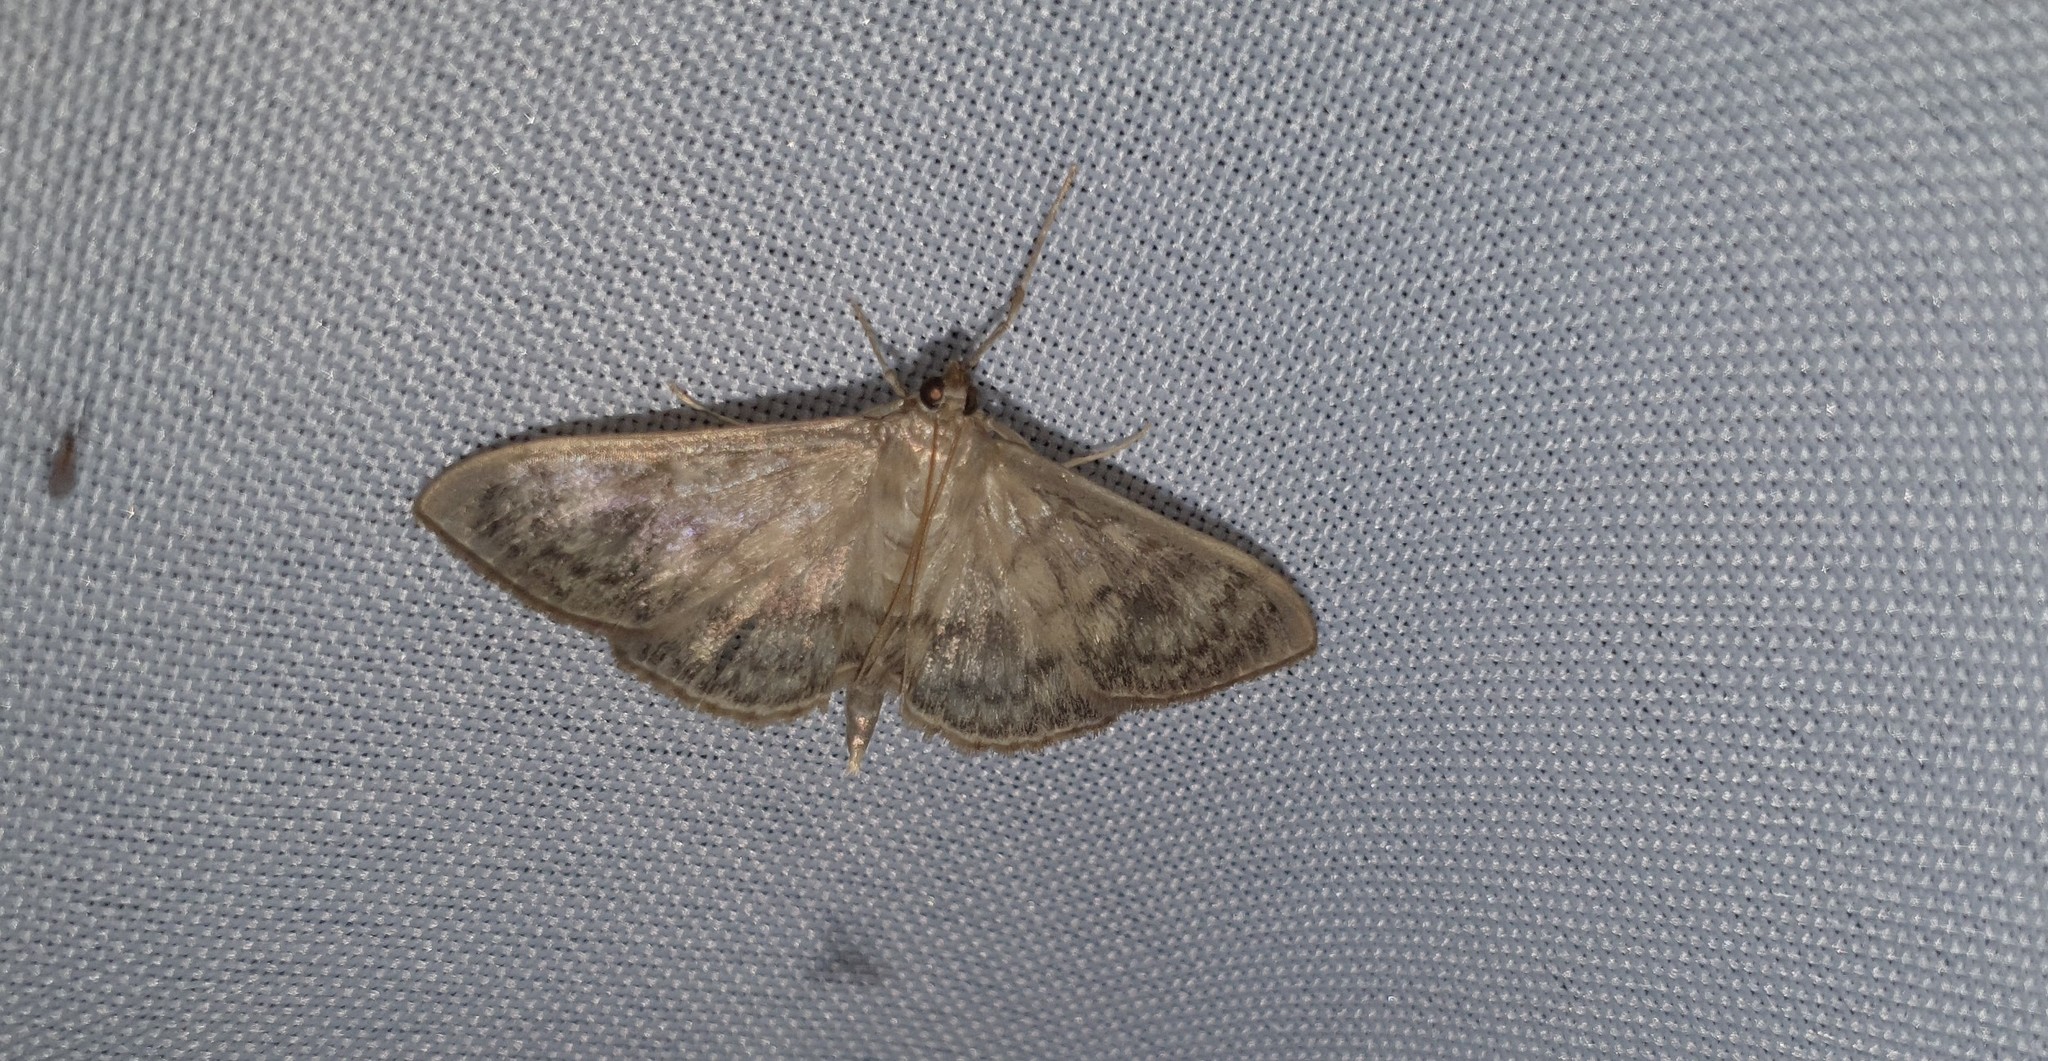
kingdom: Animalia
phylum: Arthropoda
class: Insecta
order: Lepidoptera
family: Crambidae
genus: Patania
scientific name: Patania ruralis
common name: Mother of pearl
